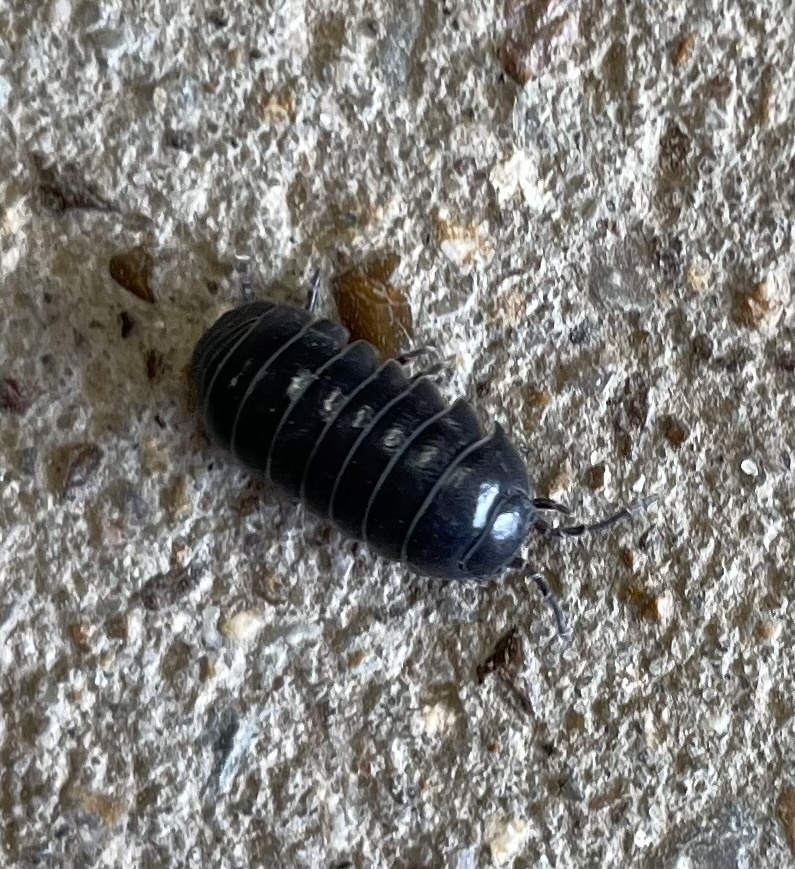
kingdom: Animalia
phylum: Arthropoda
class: Malacostraca
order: Isopoda
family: Armadillidiidae
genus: Armadillidium
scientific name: Armadillidium vulgare
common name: Common pill woodlouse
